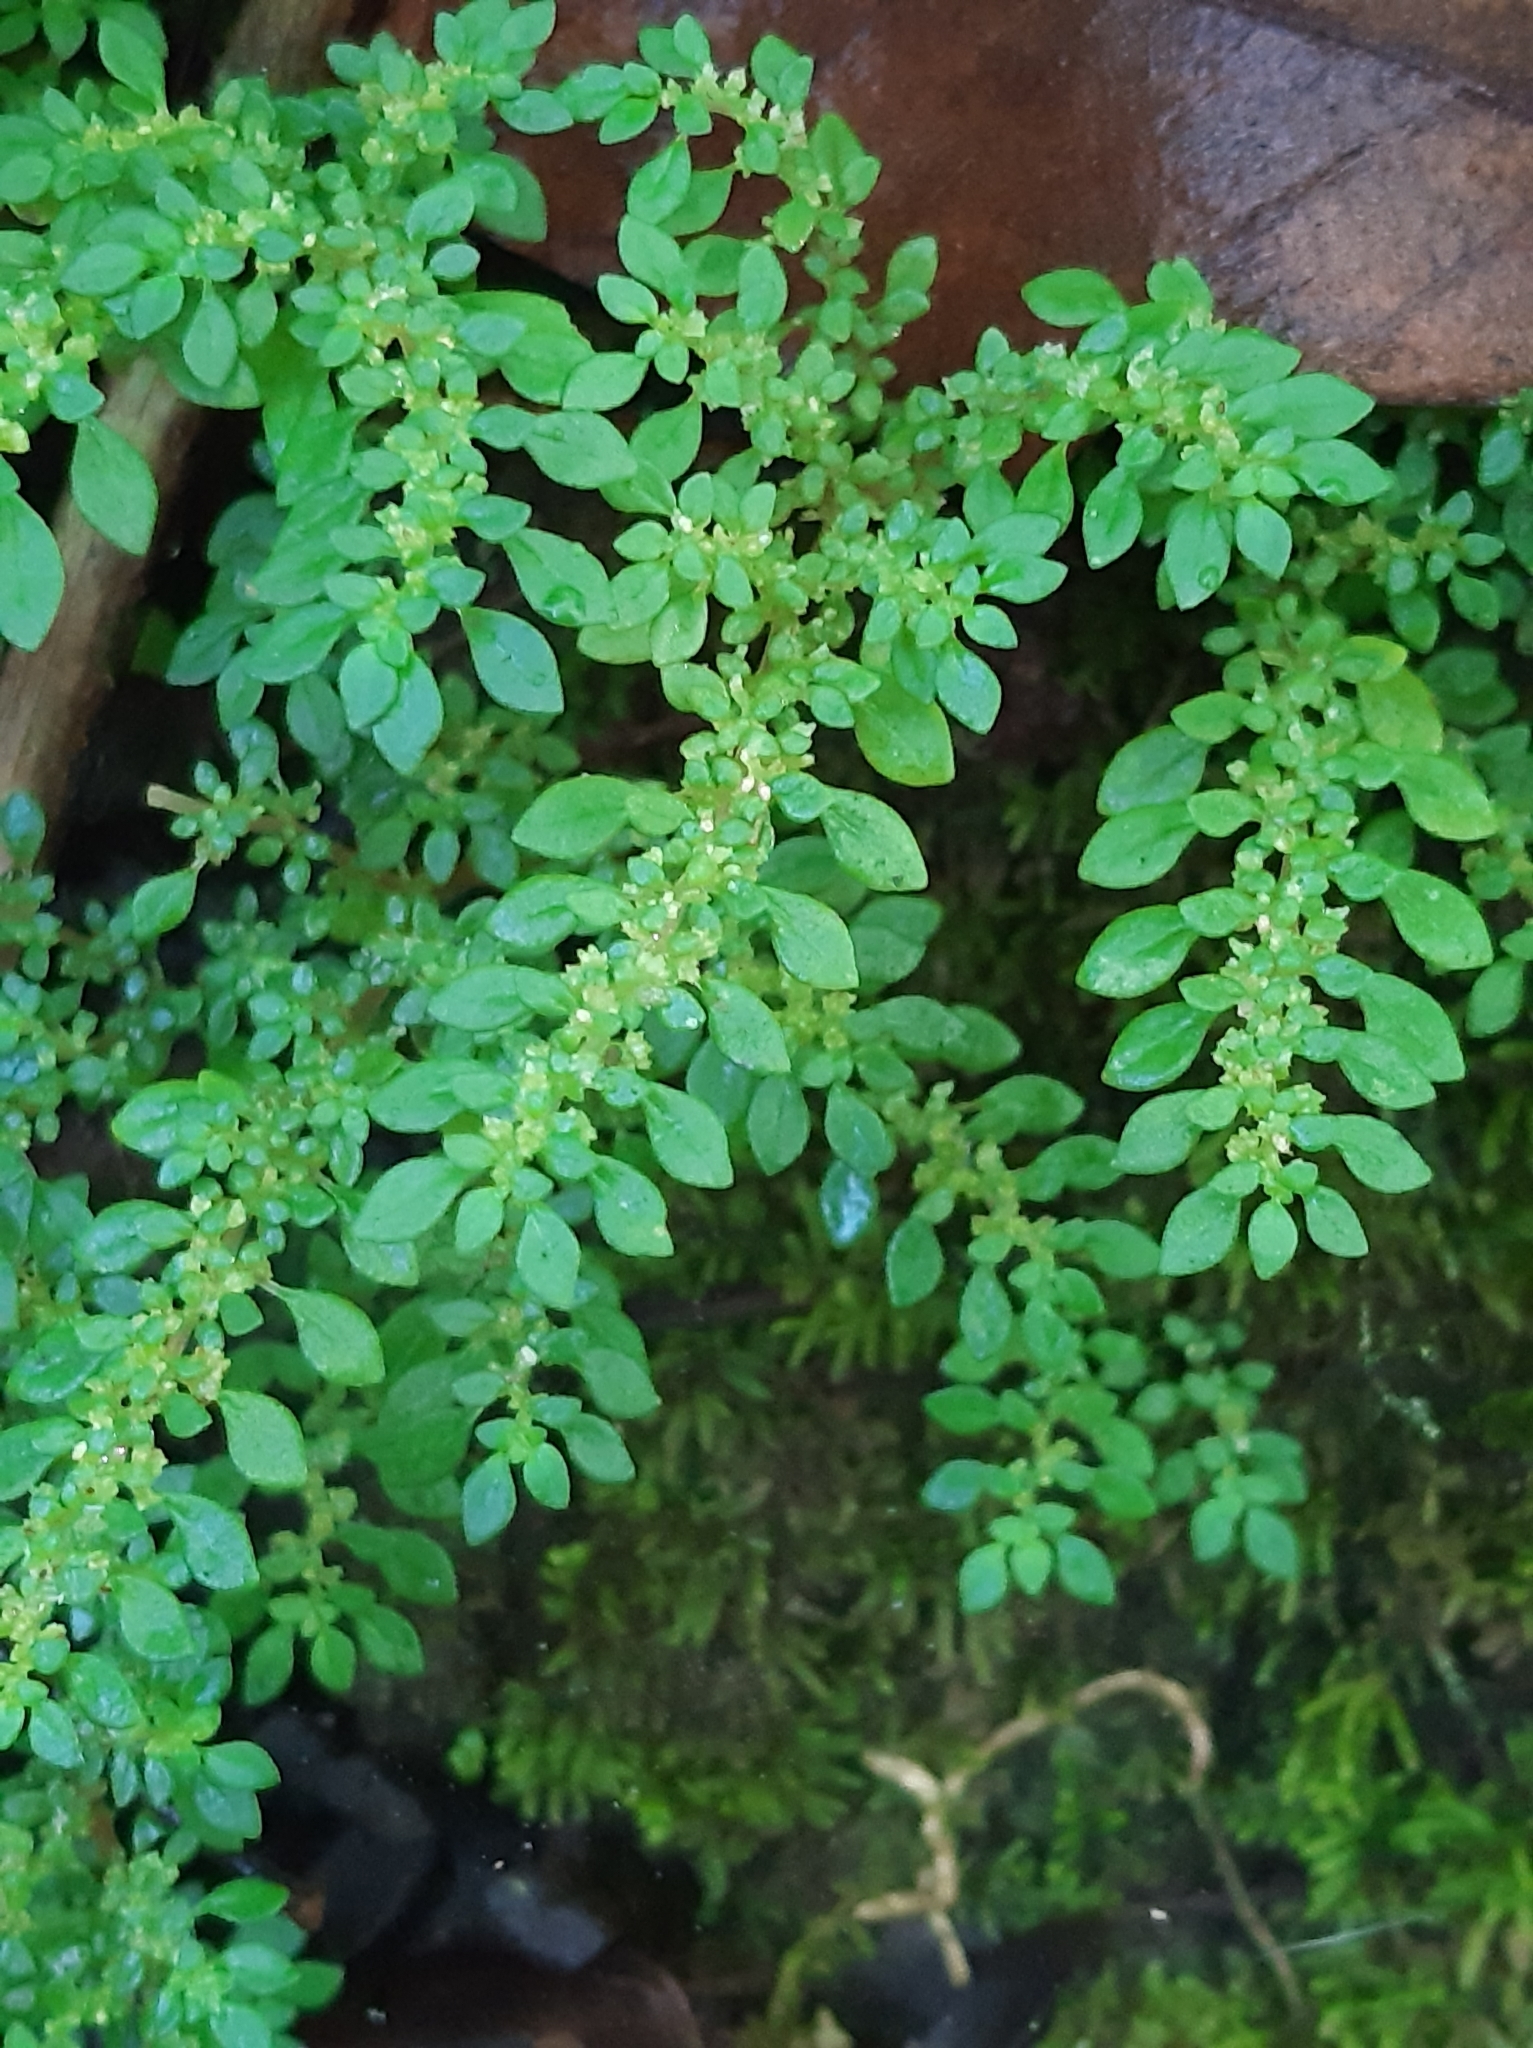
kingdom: Plantae
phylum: Tracheophyta
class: Magnoliopsida
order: Rosales
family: Urticaceae
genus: Pilea
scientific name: Pilea microphylla
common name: Artillery-plant
